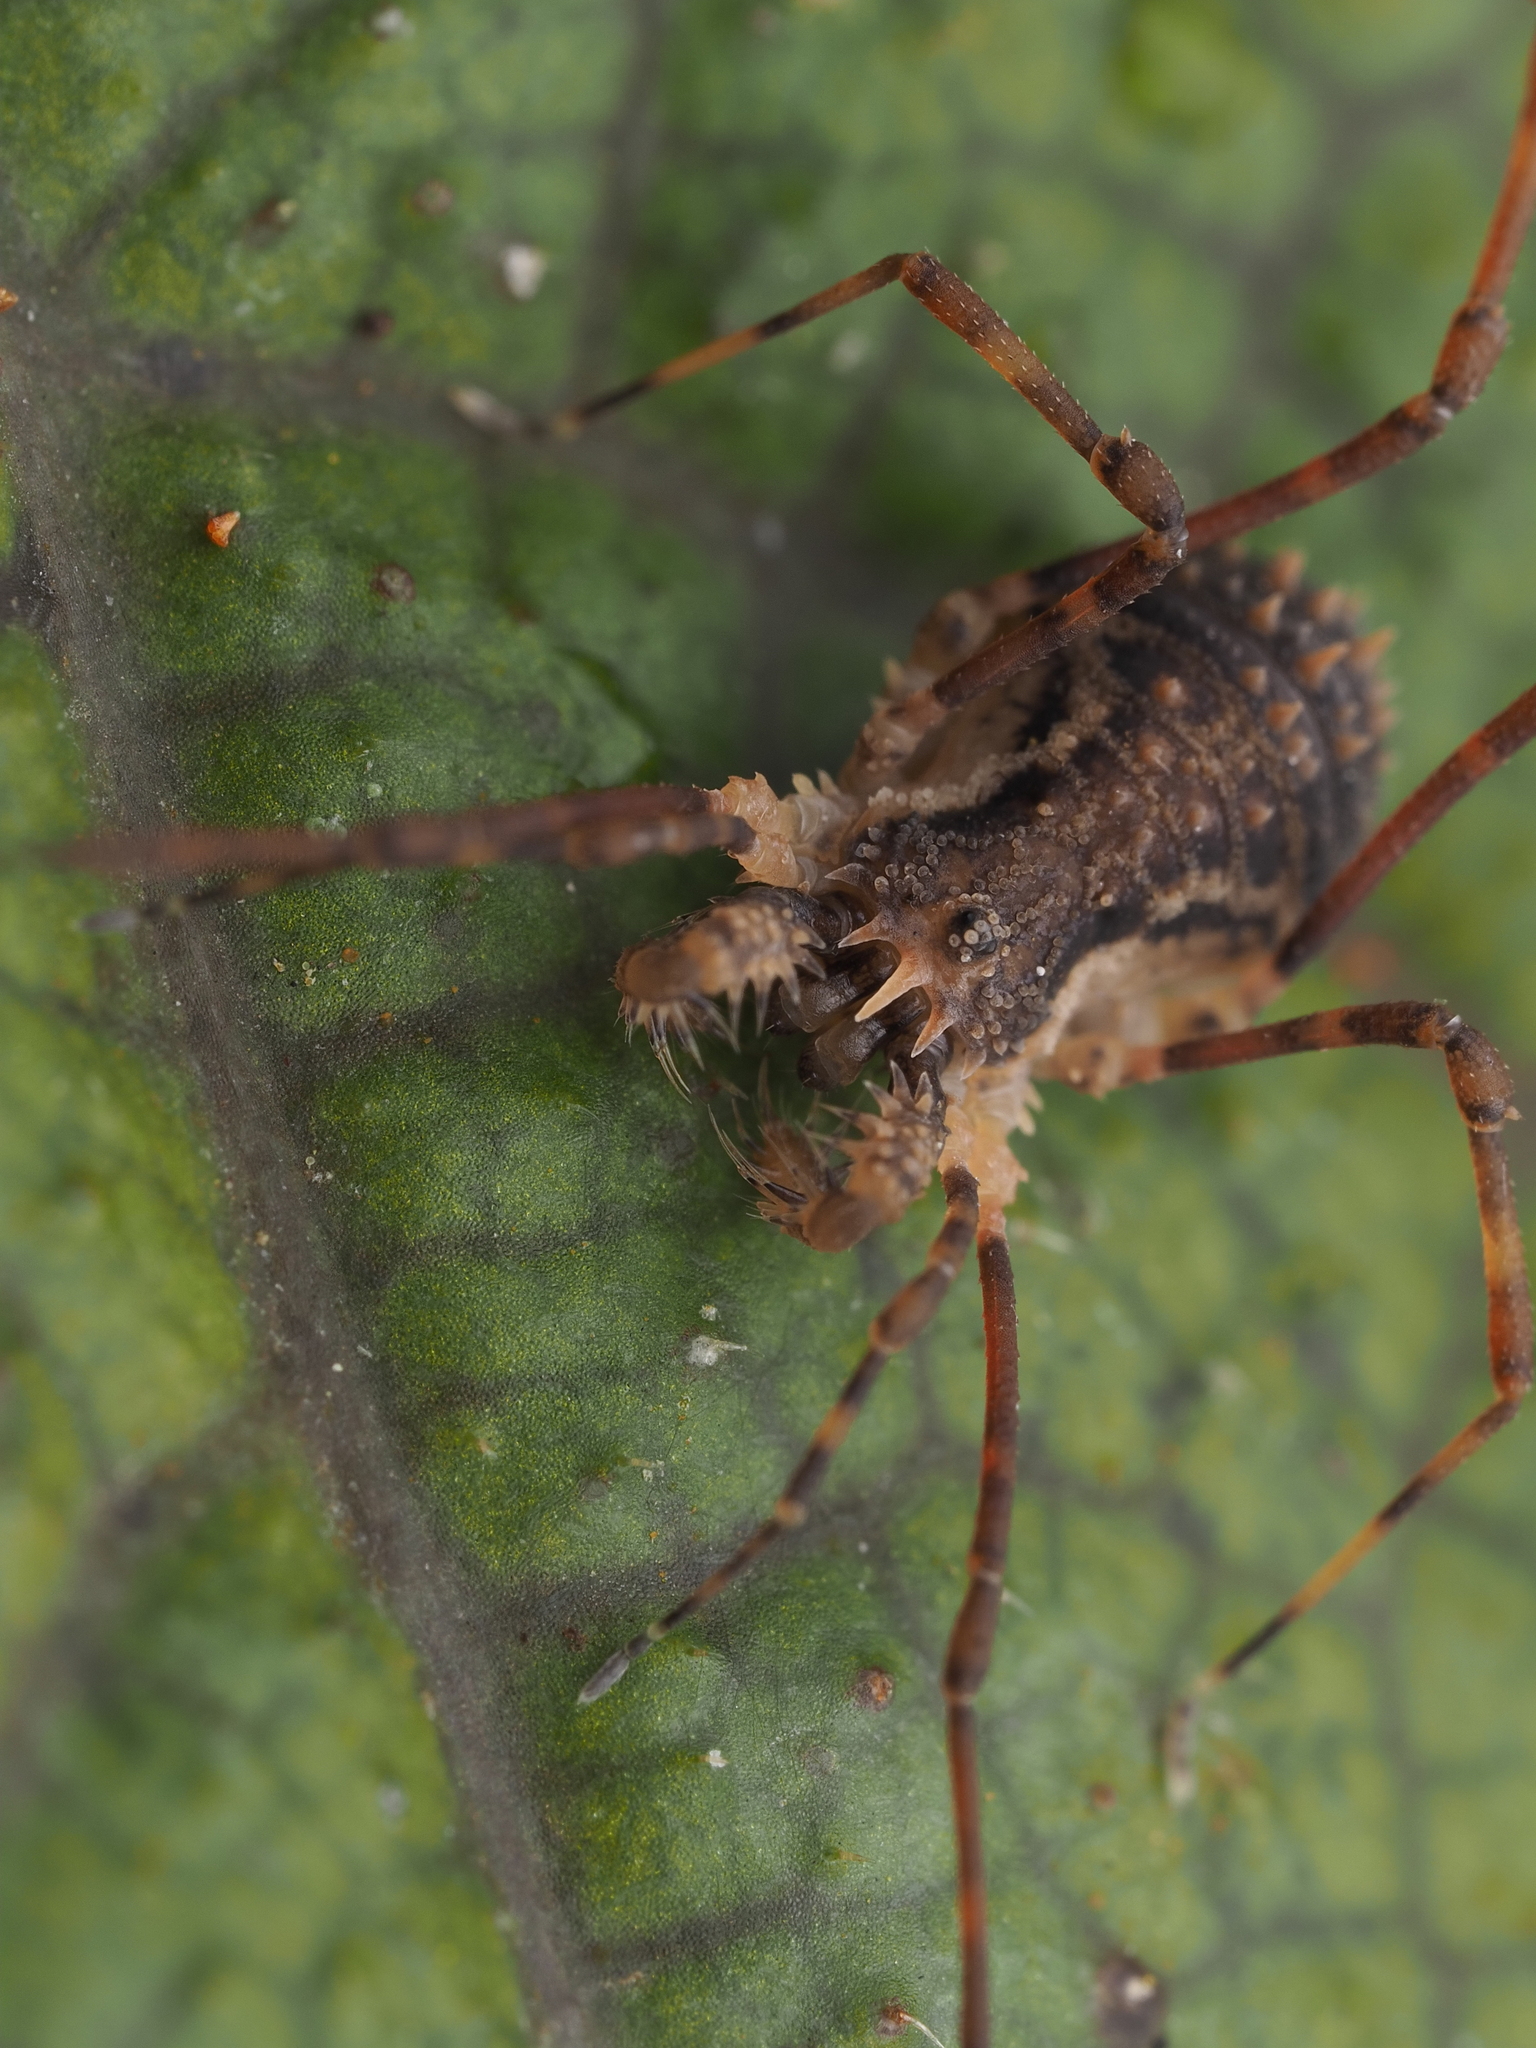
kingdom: Animalia
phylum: Arthropoda
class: Arachnida
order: Opiliones
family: Triaenonychidae
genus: Algidia
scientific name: Algidia chiltoni
